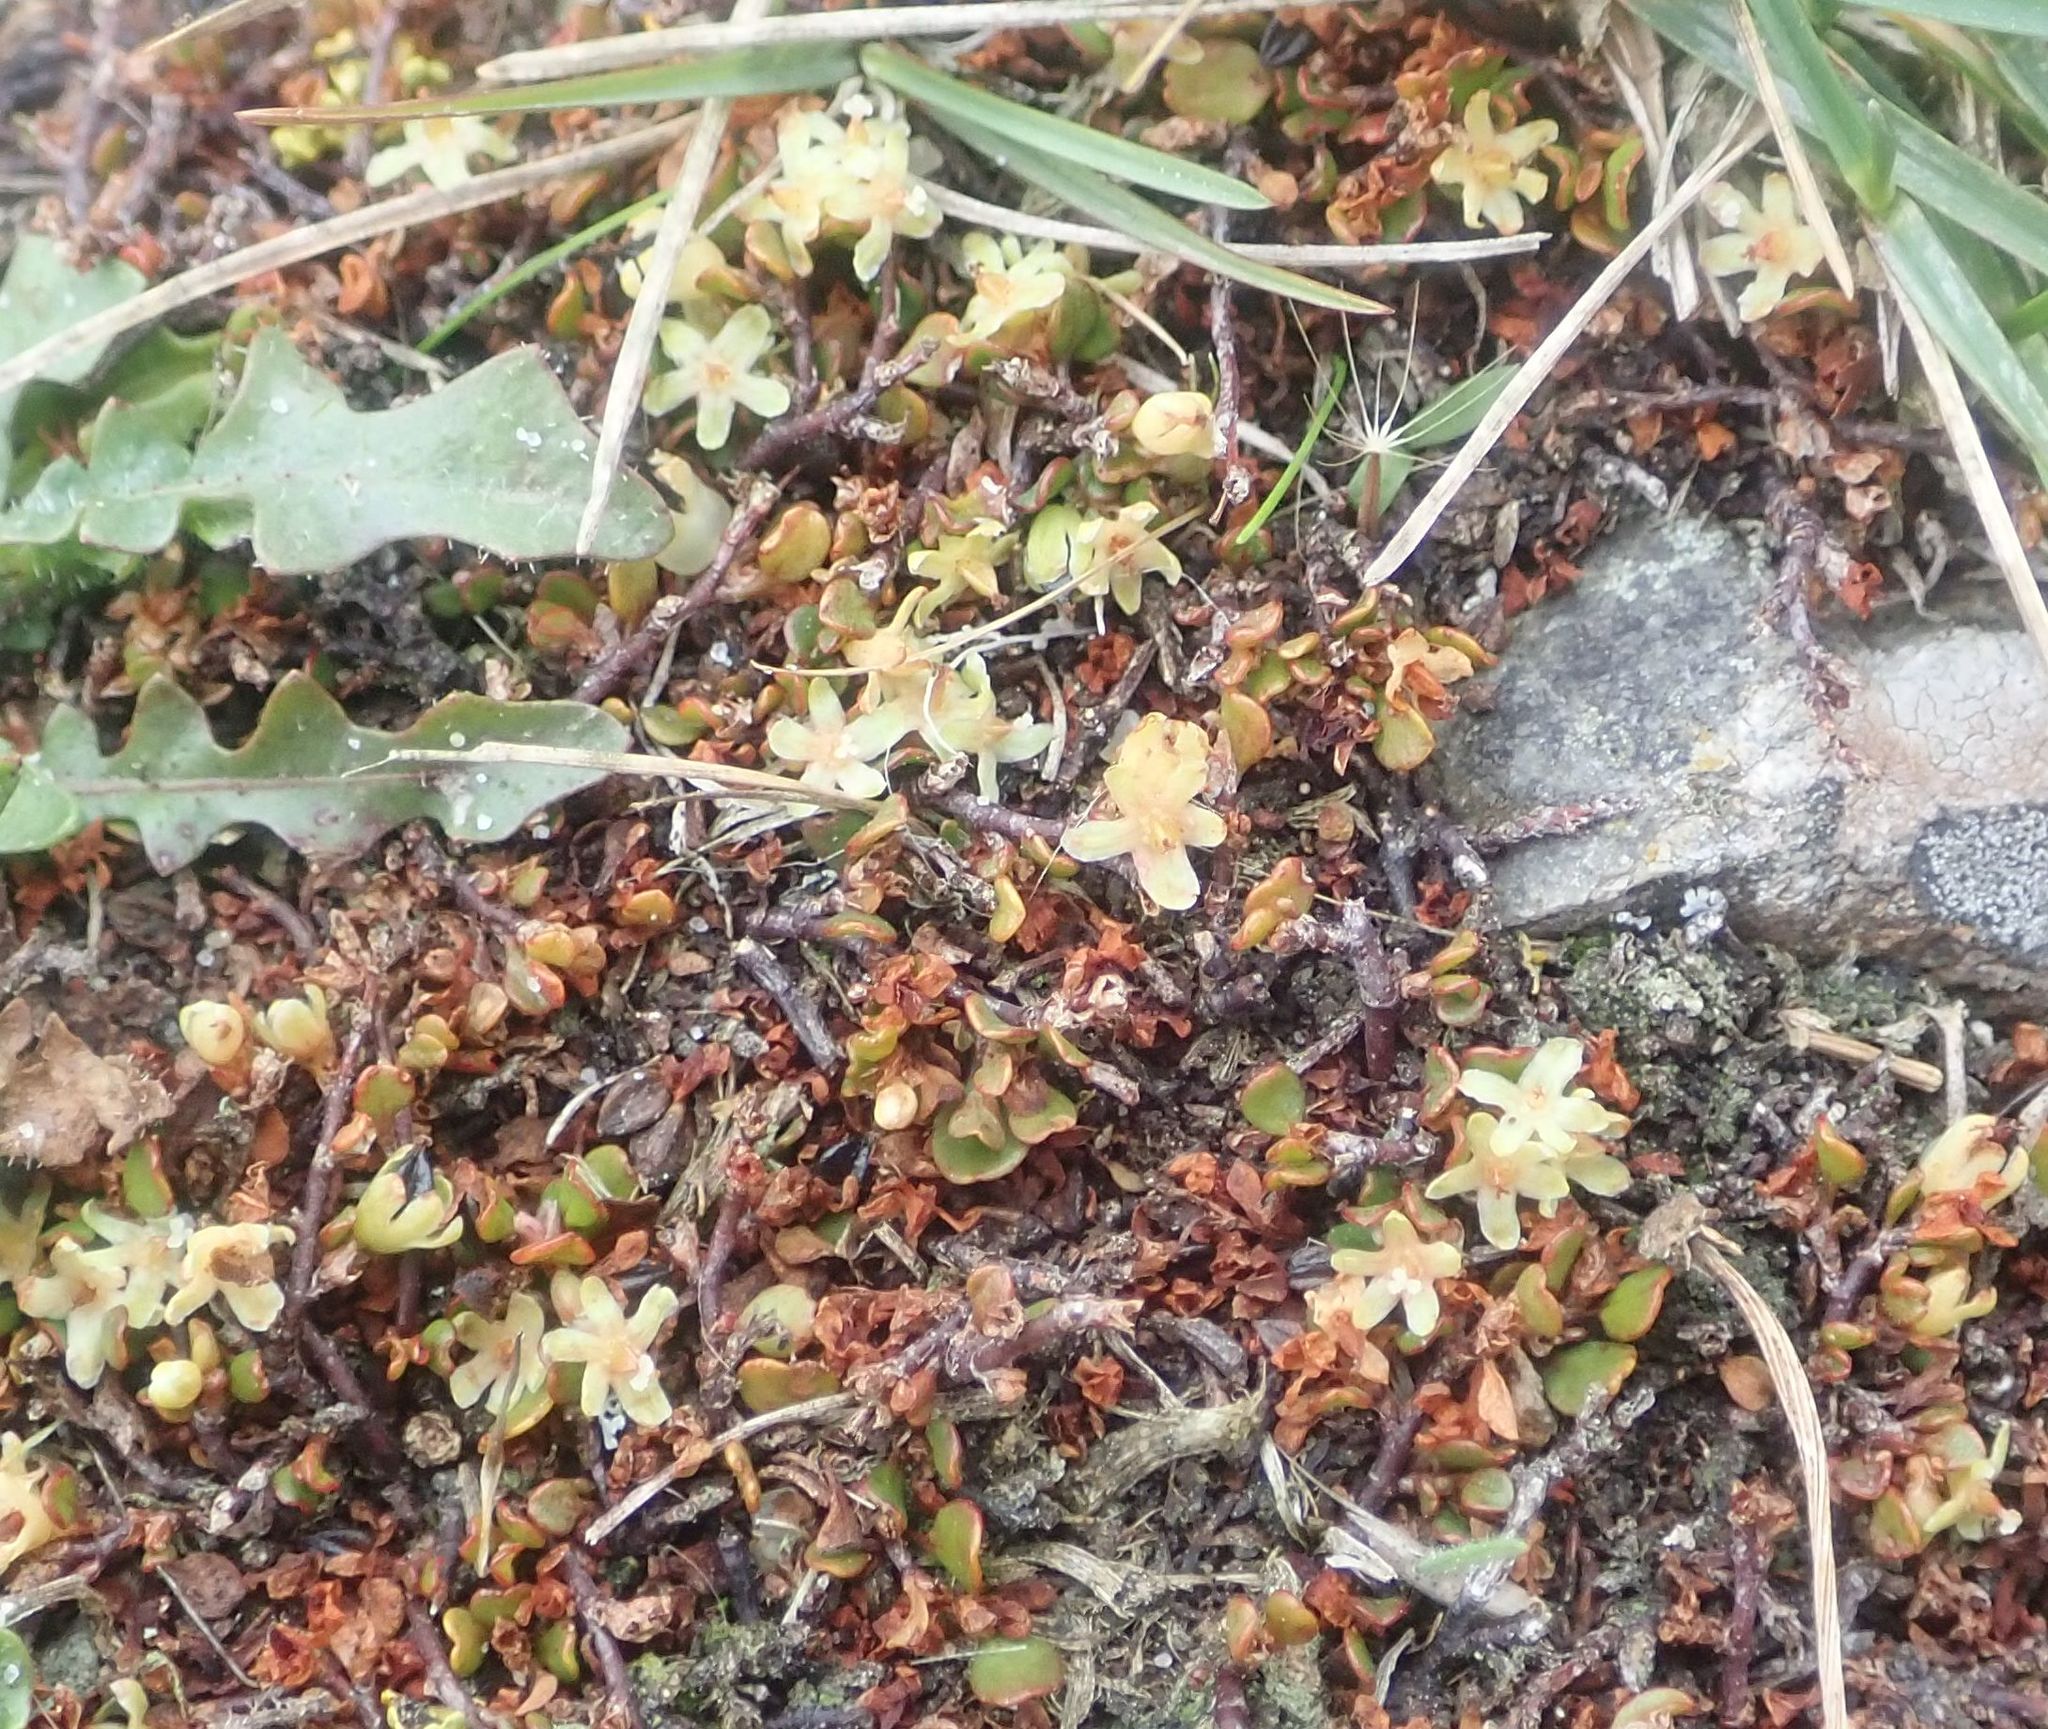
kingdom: Plantae
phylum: Tracheophyta
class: Magnoliopsida
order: Caryophyllales
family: Polygonaceae
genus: Muehlenbeckia
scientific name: Muehlenbeckia axillaris
